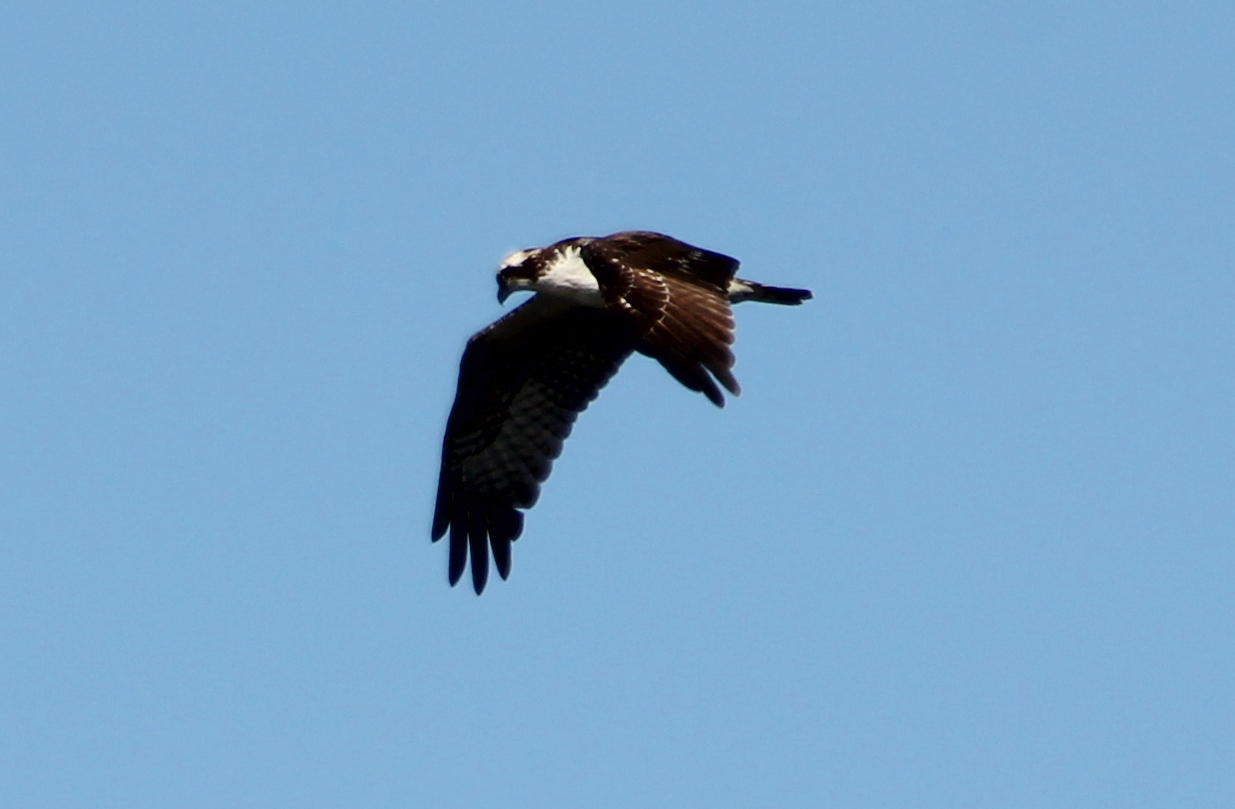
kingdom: Animalia
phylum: Chordata
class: Aves
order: Accipitriformes
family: Pandionidae
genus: Pandion
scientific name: Pandion haliaetus
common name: Osprey
